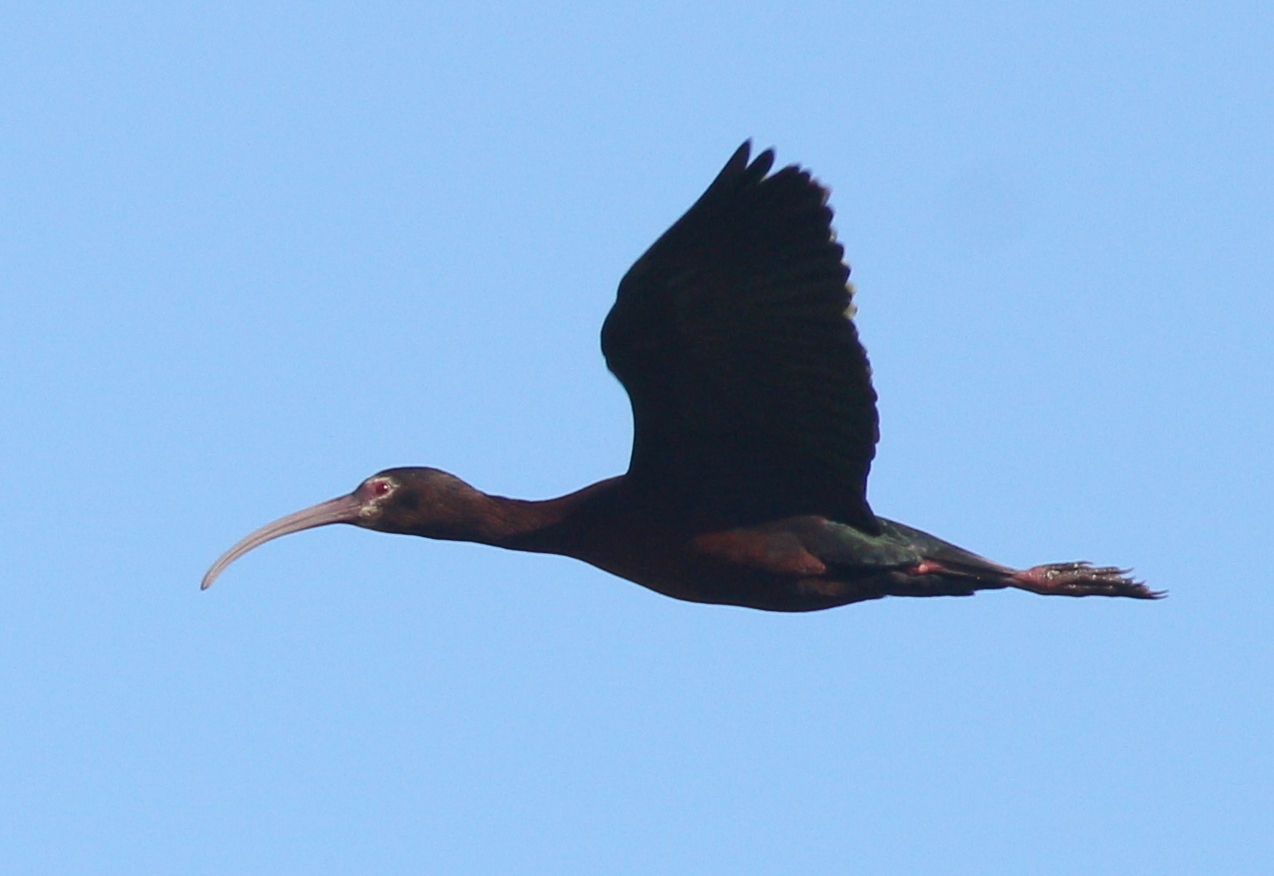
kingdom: Animalia
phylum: Chordata
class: Aves
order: Pelecaniformes
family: Threskiornithidae
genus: Plegadis
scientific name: Plegadis chihi
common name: White-faced ibis
